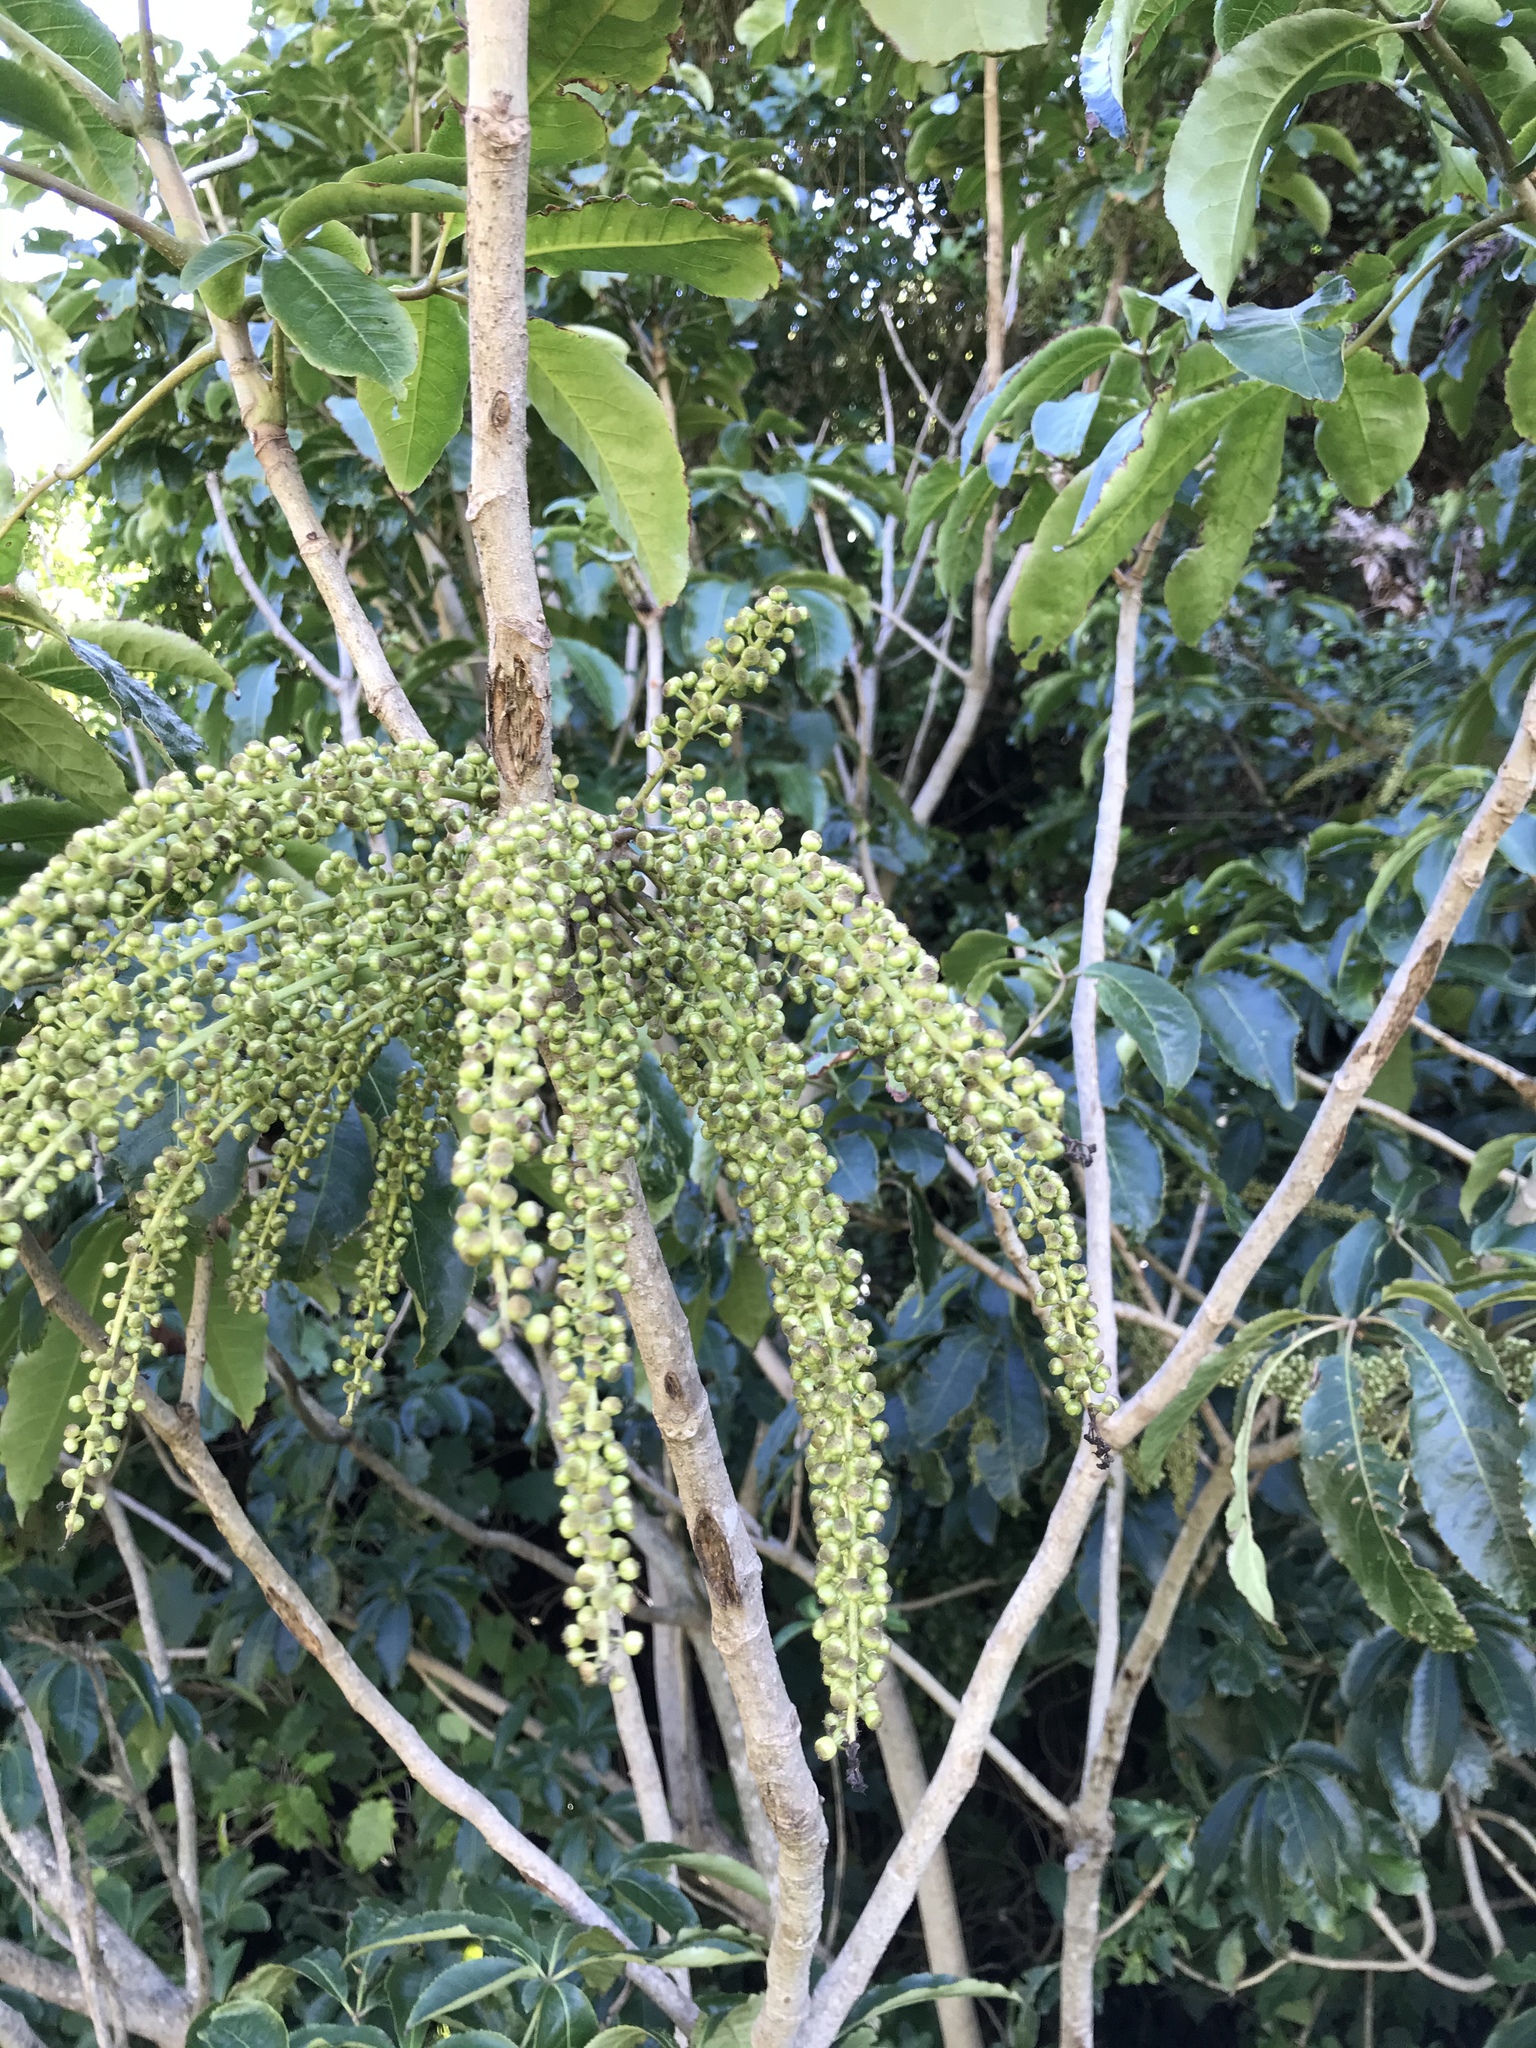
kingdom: Plantae
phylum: Tracheophyta
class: Magnoliopsida
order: Apiales
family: Araliaceae
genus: Schefflera
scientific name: Schefflera digitata
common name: Pate
